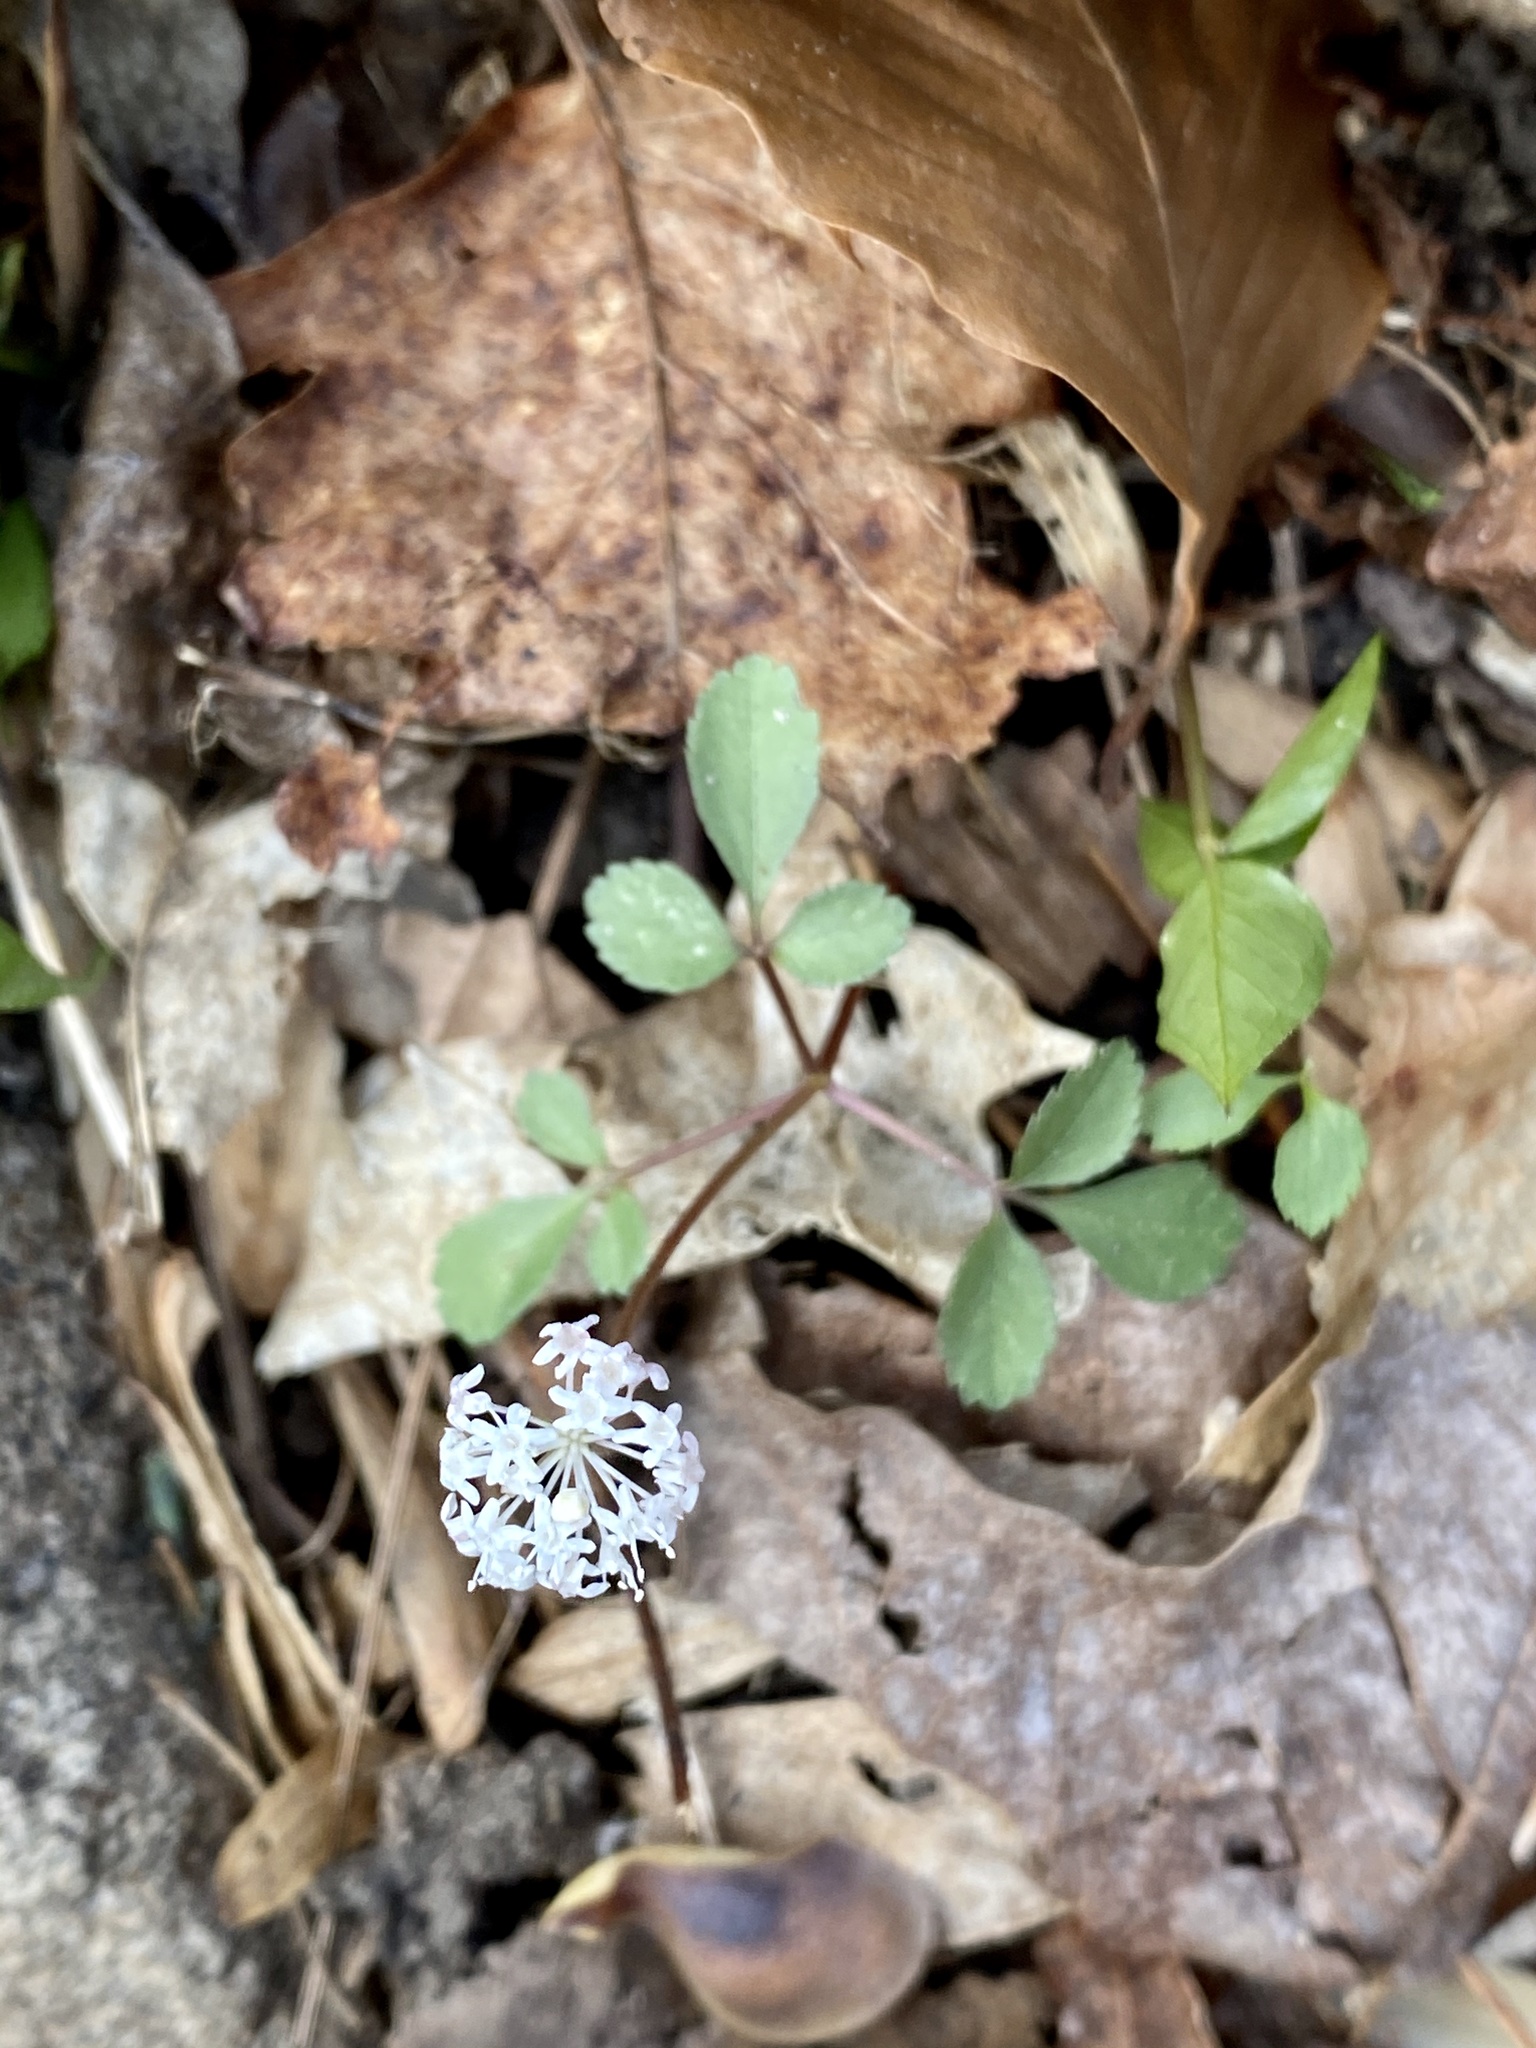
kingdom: Plantae
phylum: Tracheophyta
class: Magnoliopsida
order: Apiales
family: Araliaceae
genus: Panax
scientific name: Panax trifolius
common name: Dwarf ginseng
